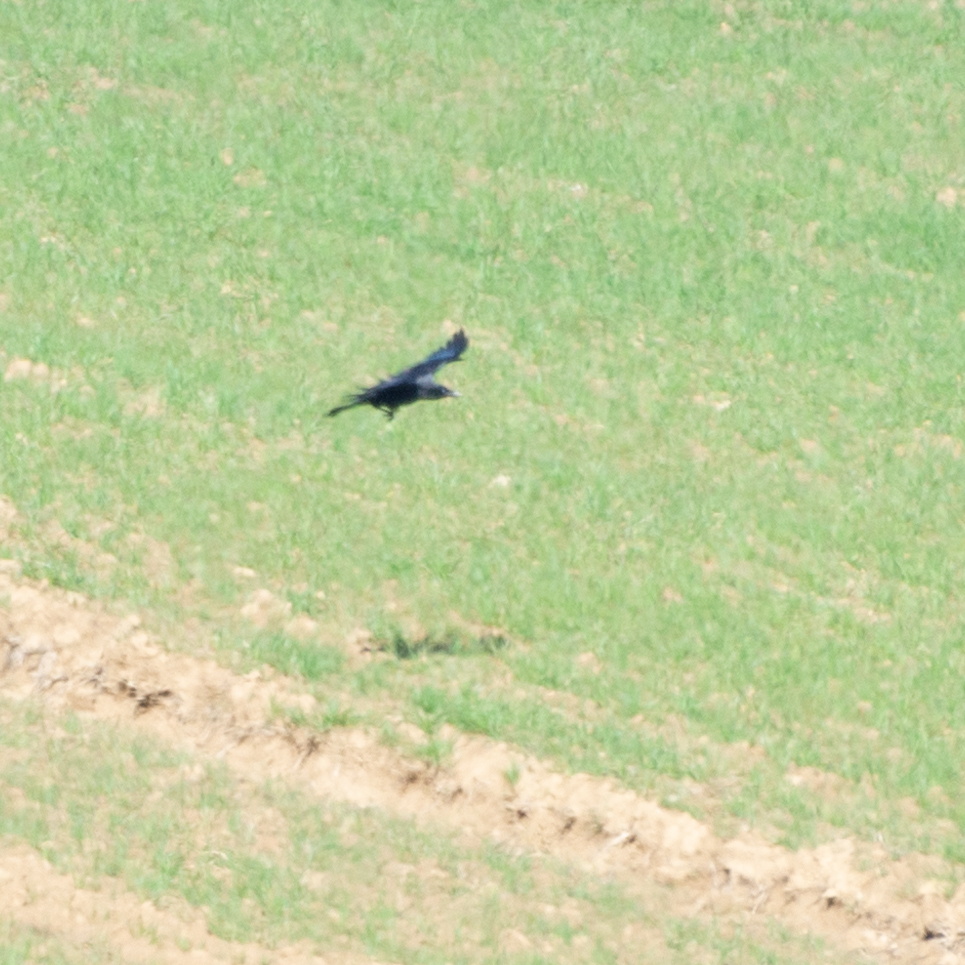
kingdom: Animalia
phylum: Chordata
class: Aves
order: Passeriformes
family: Corvidae
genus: Corvus
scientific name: Corvus corone
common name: Carrion crow
